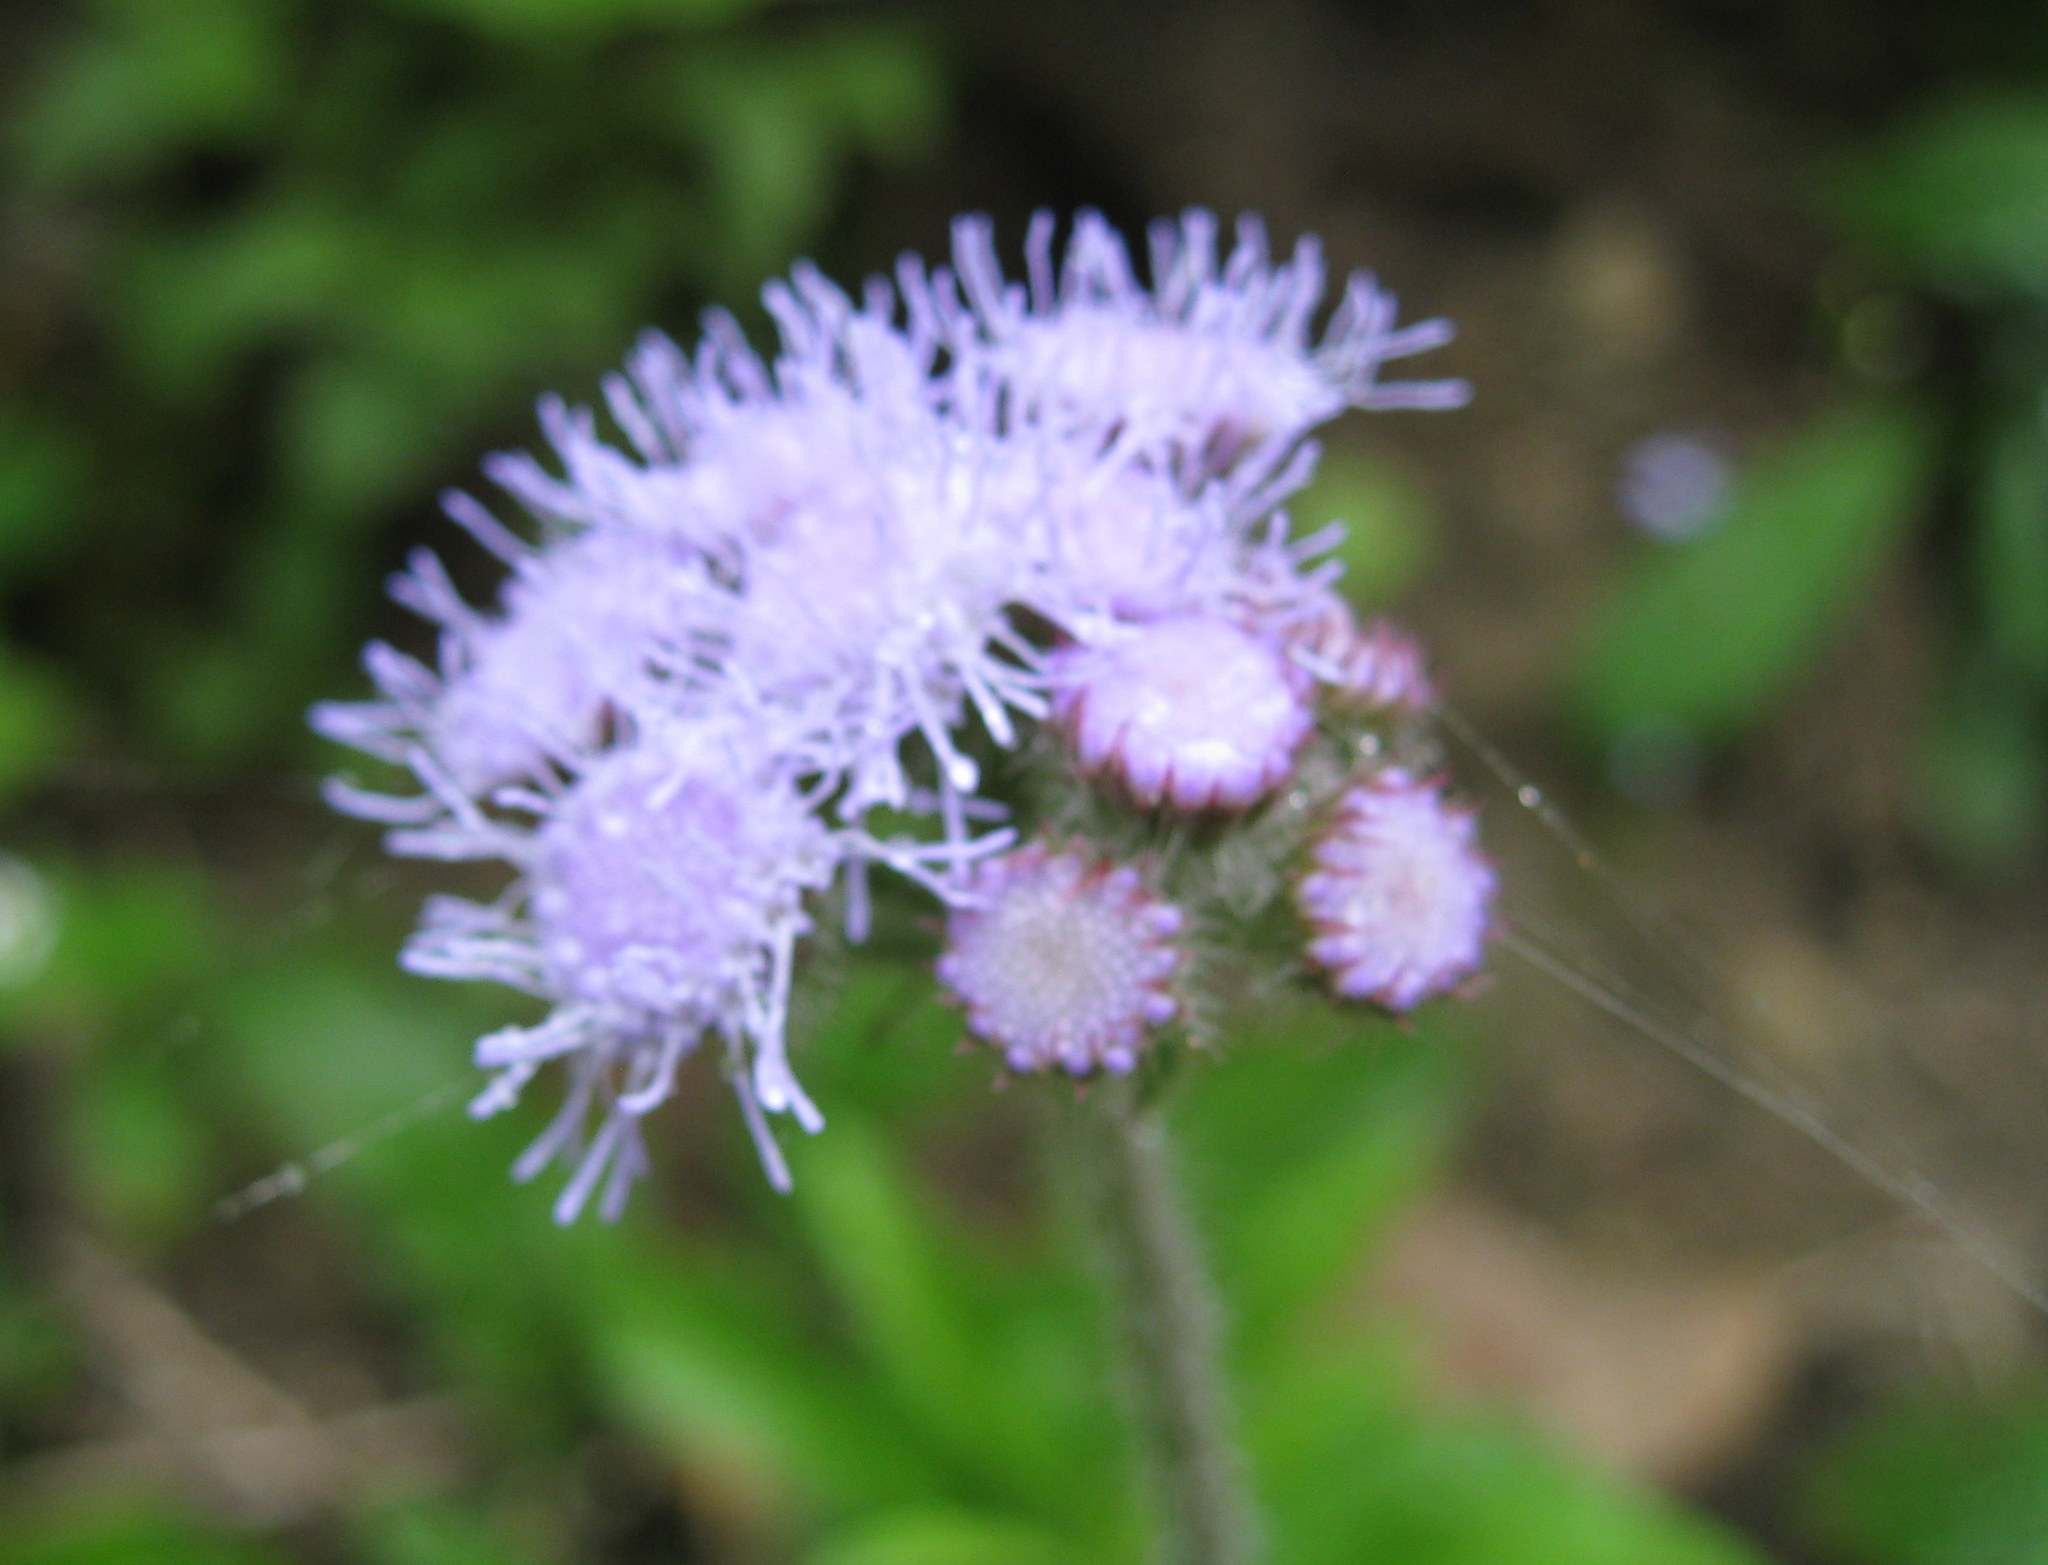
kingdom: Plantae
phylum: Tracheophyta
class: Magnoliopsida
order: Asterales
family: Asteraceae
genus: Ageratum
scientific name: Ageratum houstonianum
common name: Bluemink
